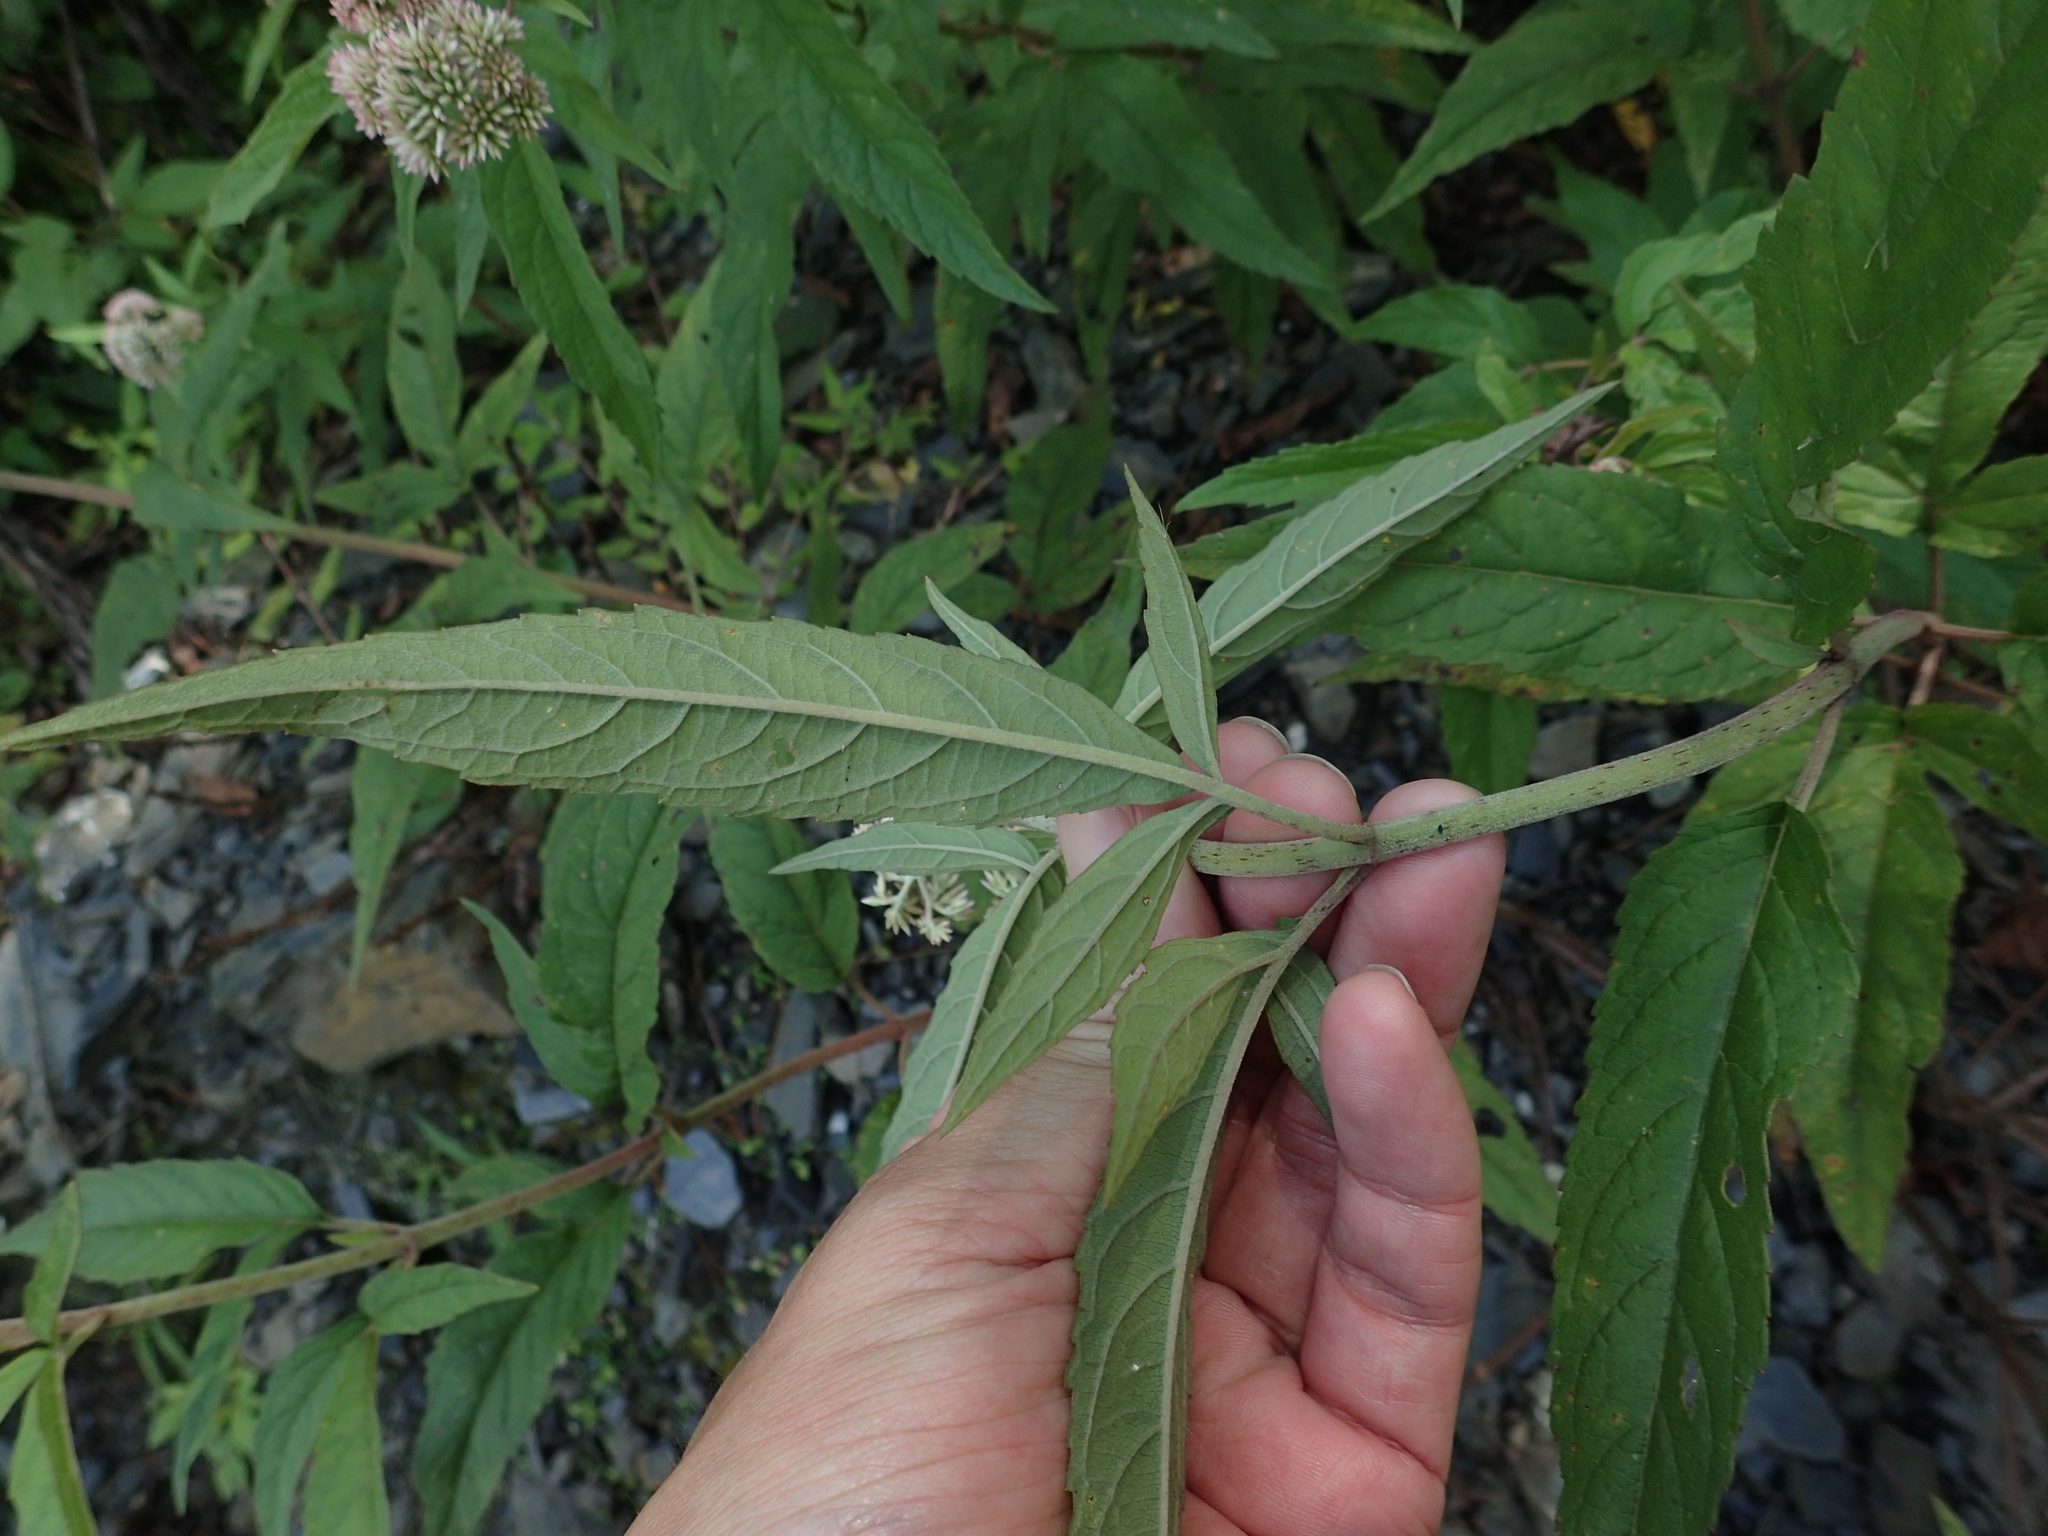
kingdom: Plantae
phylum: Tracheophyta
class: Magnoliopsida
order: Asterales
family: Asteraceae
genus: Eupatorium
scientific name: Eupatorium formosanum
